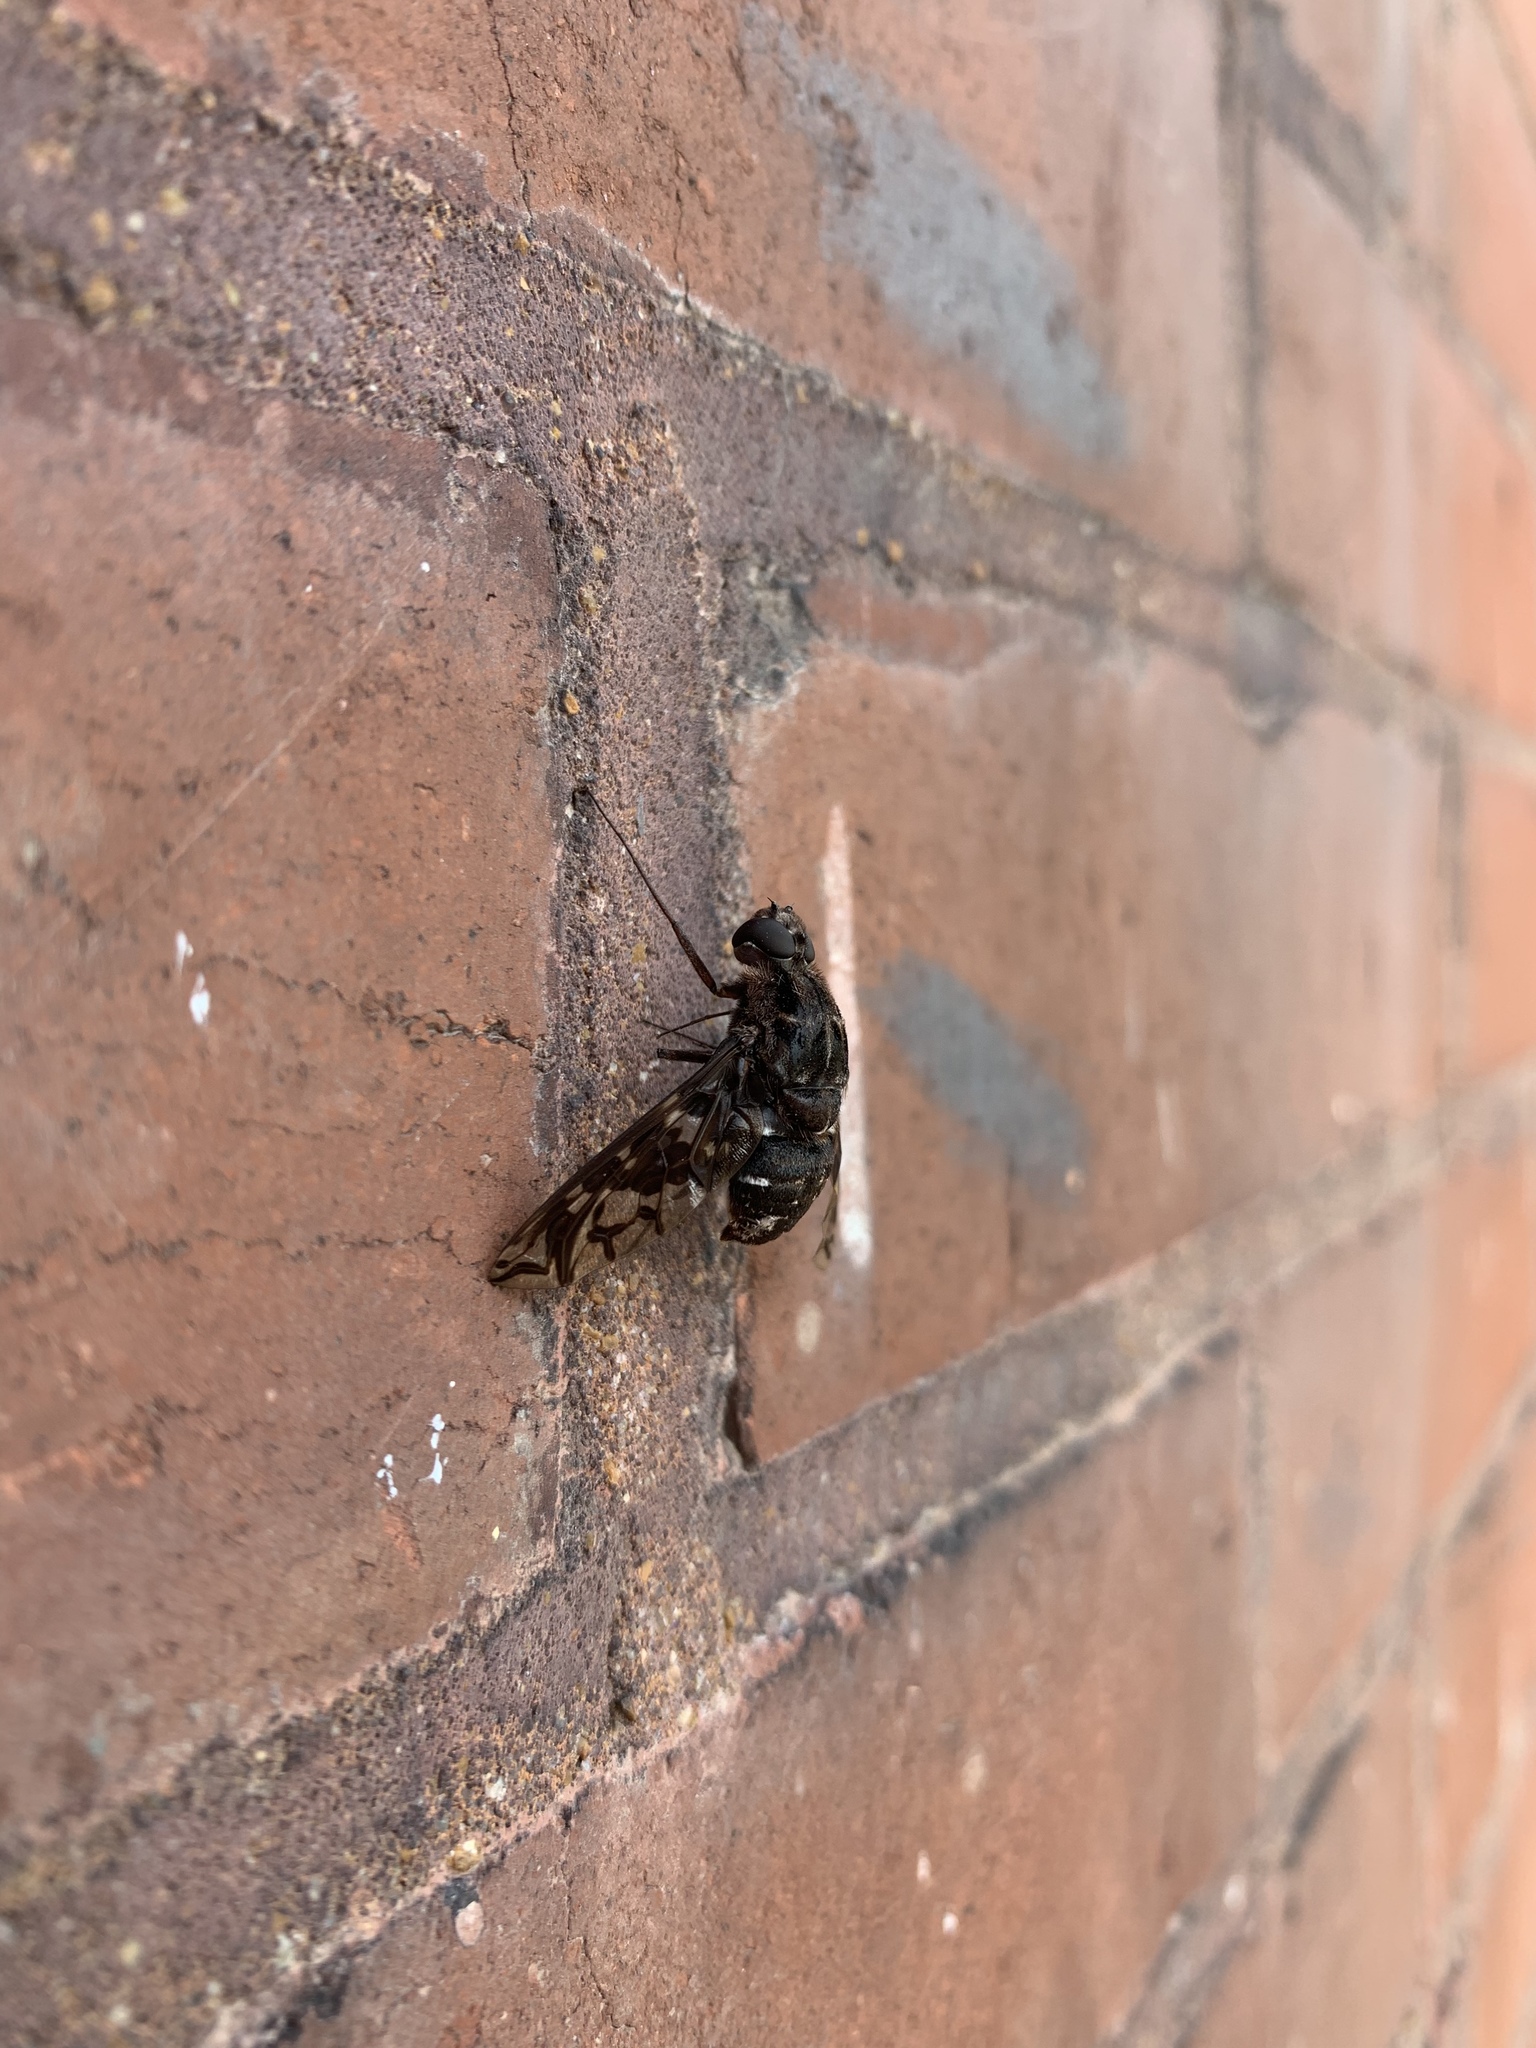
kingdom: Animalia
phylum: Arthropoda
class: Insecta
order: Diptera
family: Bombyliidae
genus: Xenox
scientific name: Xenox tigrinus
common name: Tiger bee fly
